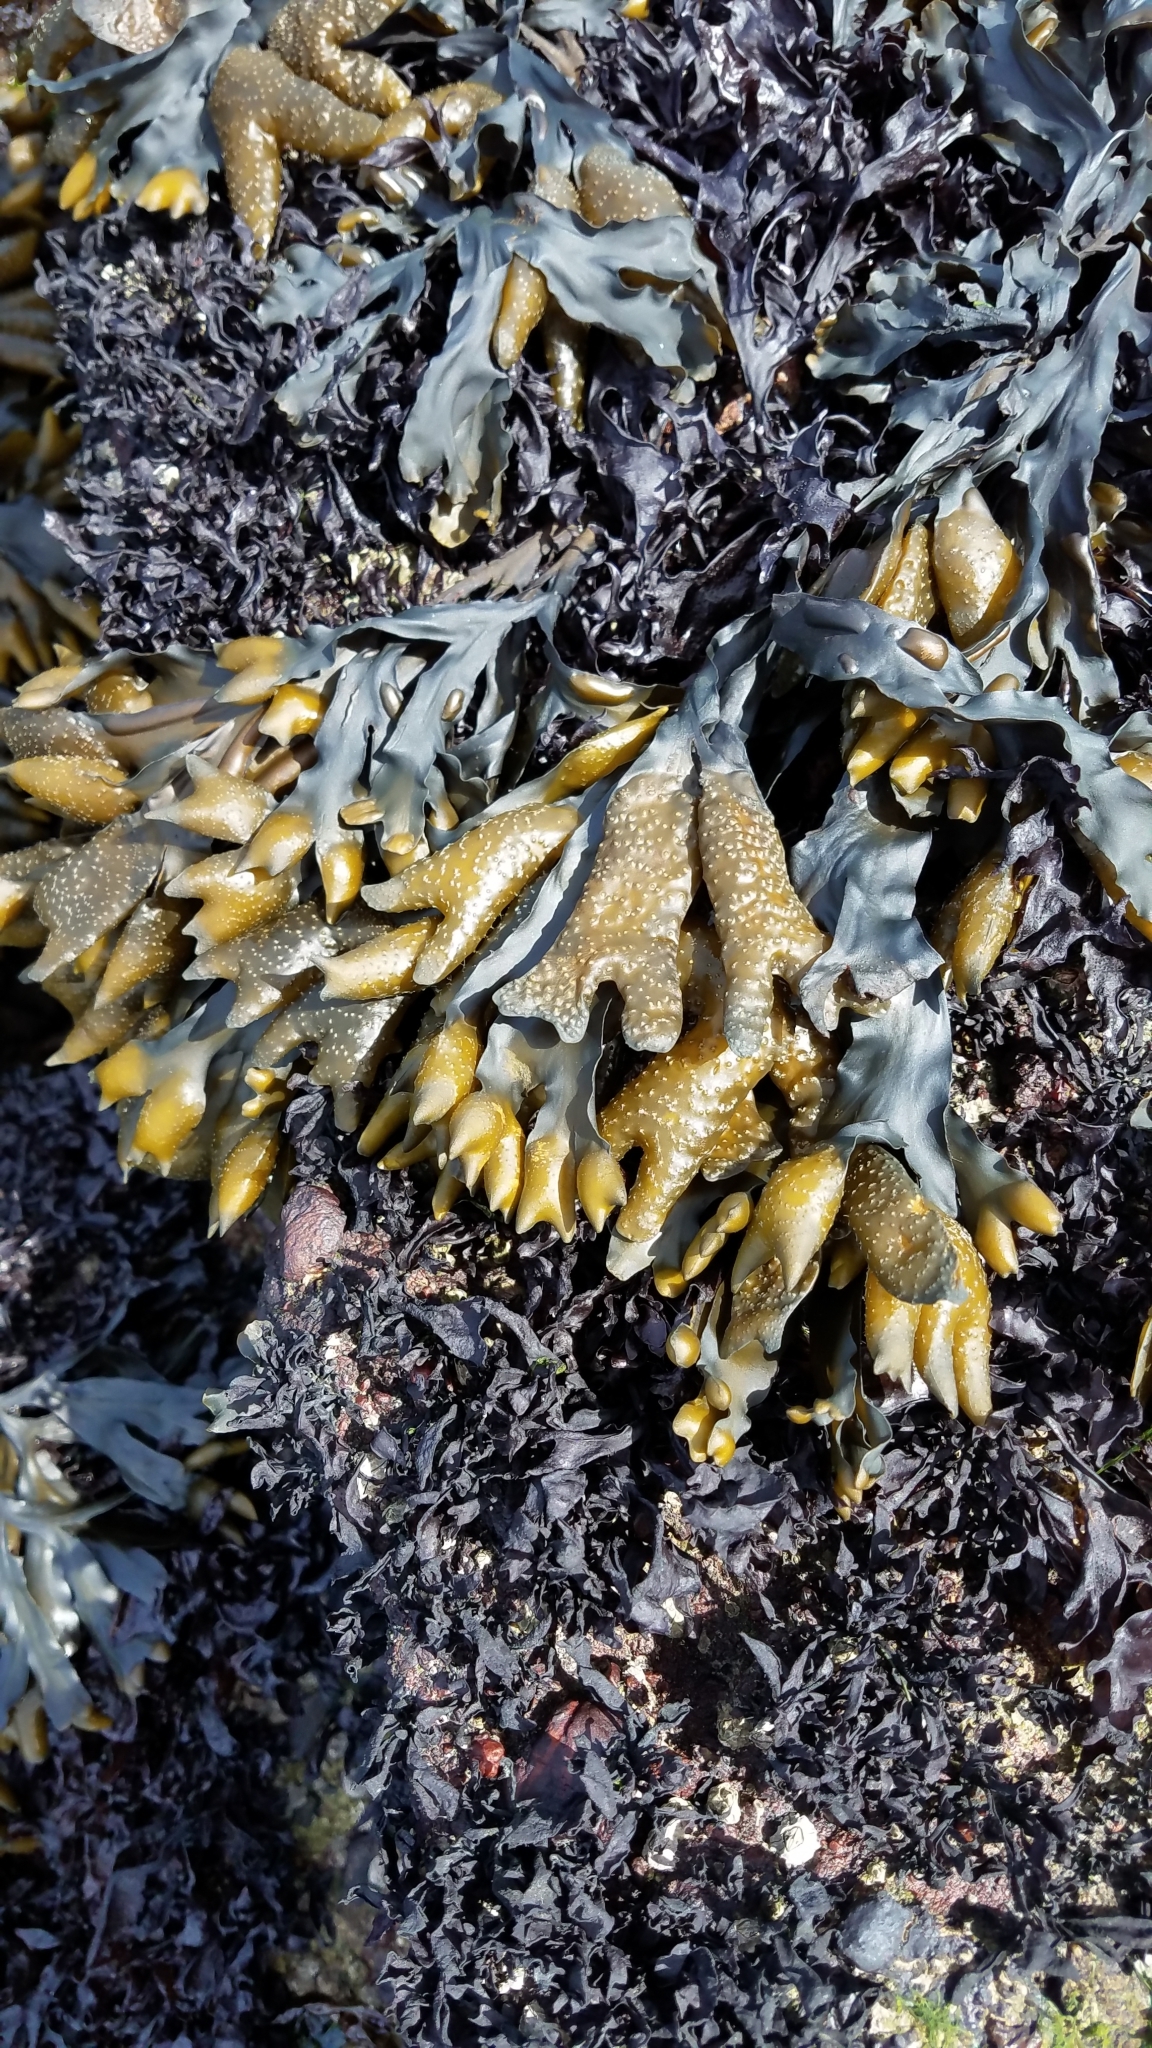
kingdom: Chromista
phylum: Ochrophyta
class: Phaeophyceae
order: Fucales
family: Fucaceae
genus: Fucus
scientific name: Fucus distichus
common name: Rockweed
